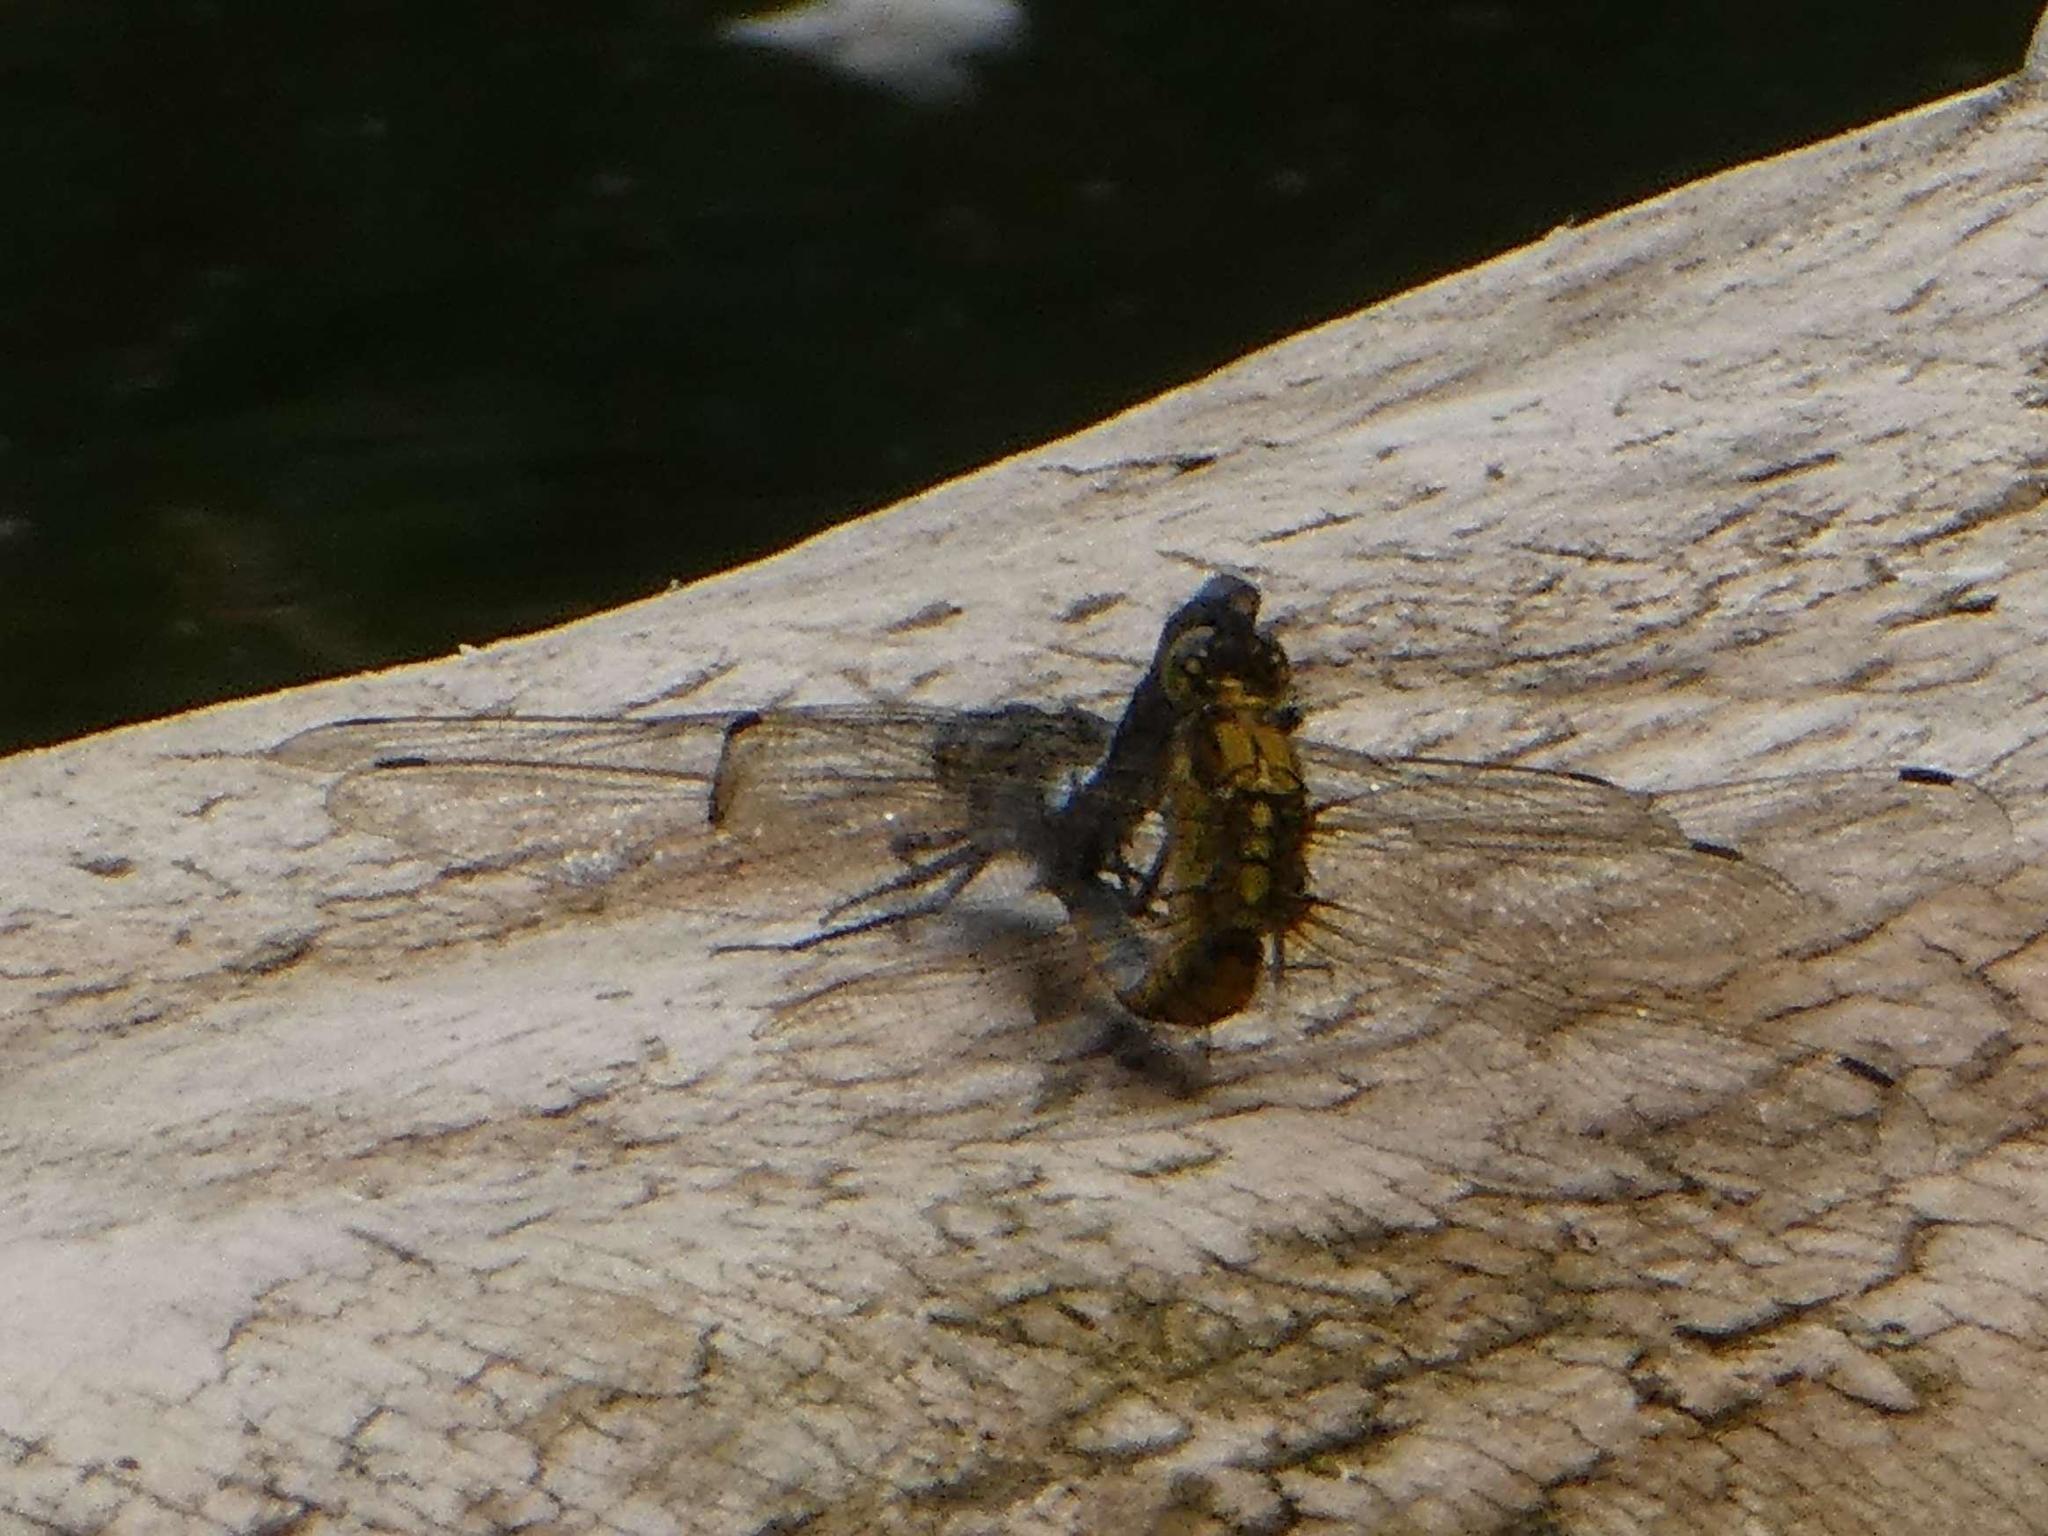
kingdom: Animalia
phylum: Arthropoda
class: Insecta
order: Odonata
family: Libellulidae
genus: Orthetrum
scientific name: Orthetrum cancellatum
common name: Black-tailed skimmer
